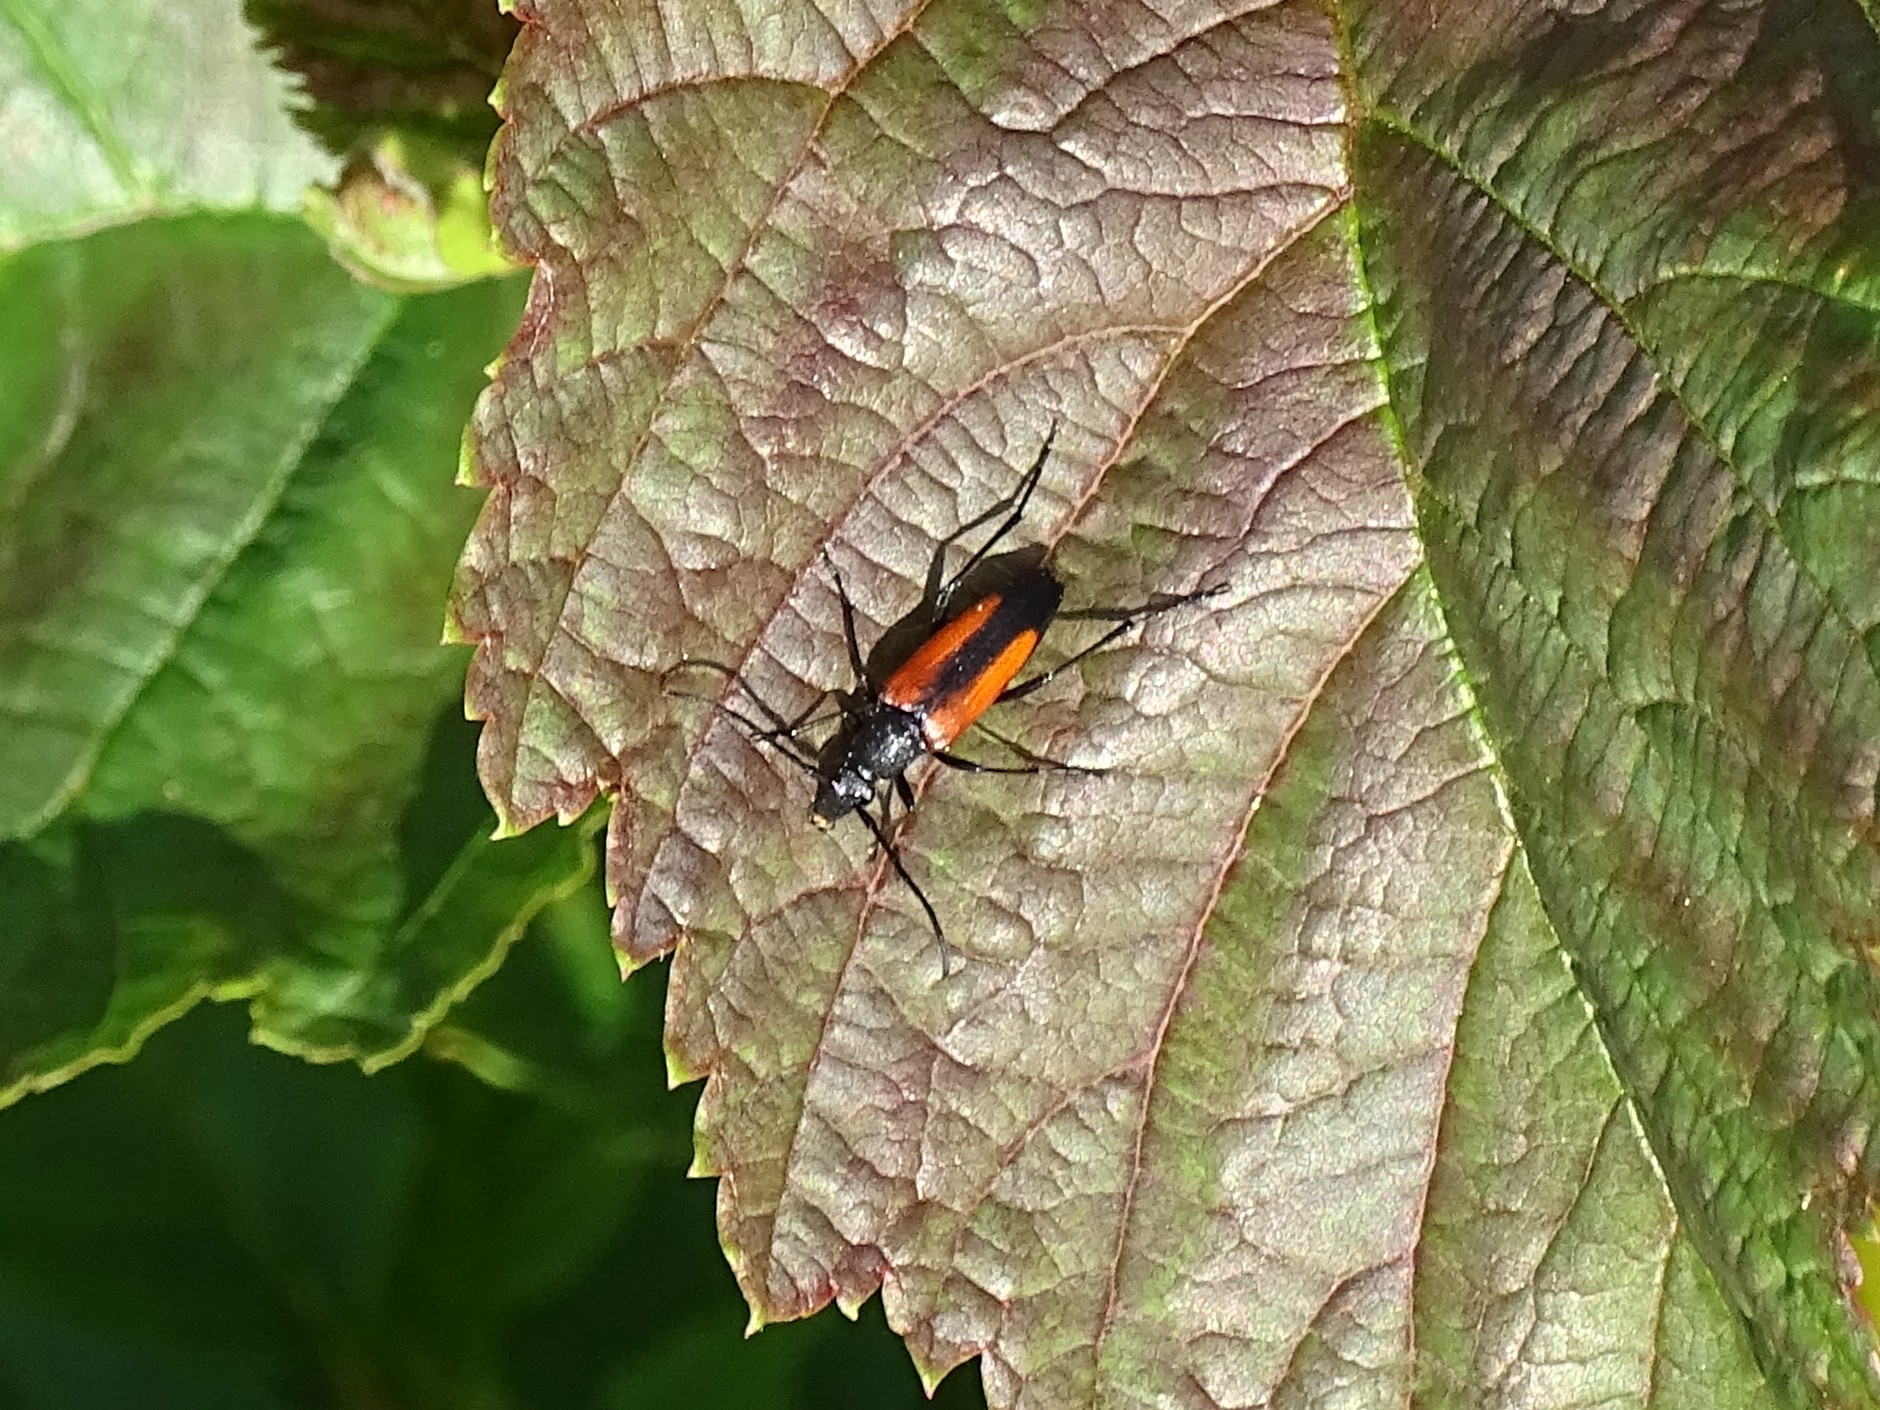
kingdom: Animalia
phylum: Arthropoda
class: Insecta
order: Coleoptera
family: Cerambycidae
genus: Stenurella
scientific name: Stenurella melanura
